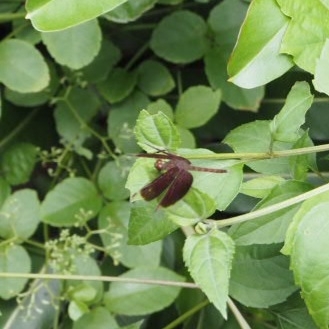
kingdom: Animalia
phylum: Arthropoda
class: Insecta
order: Odonata
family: Libellulidae
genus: Neurothemis
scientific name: Neurothemis fluctuans
